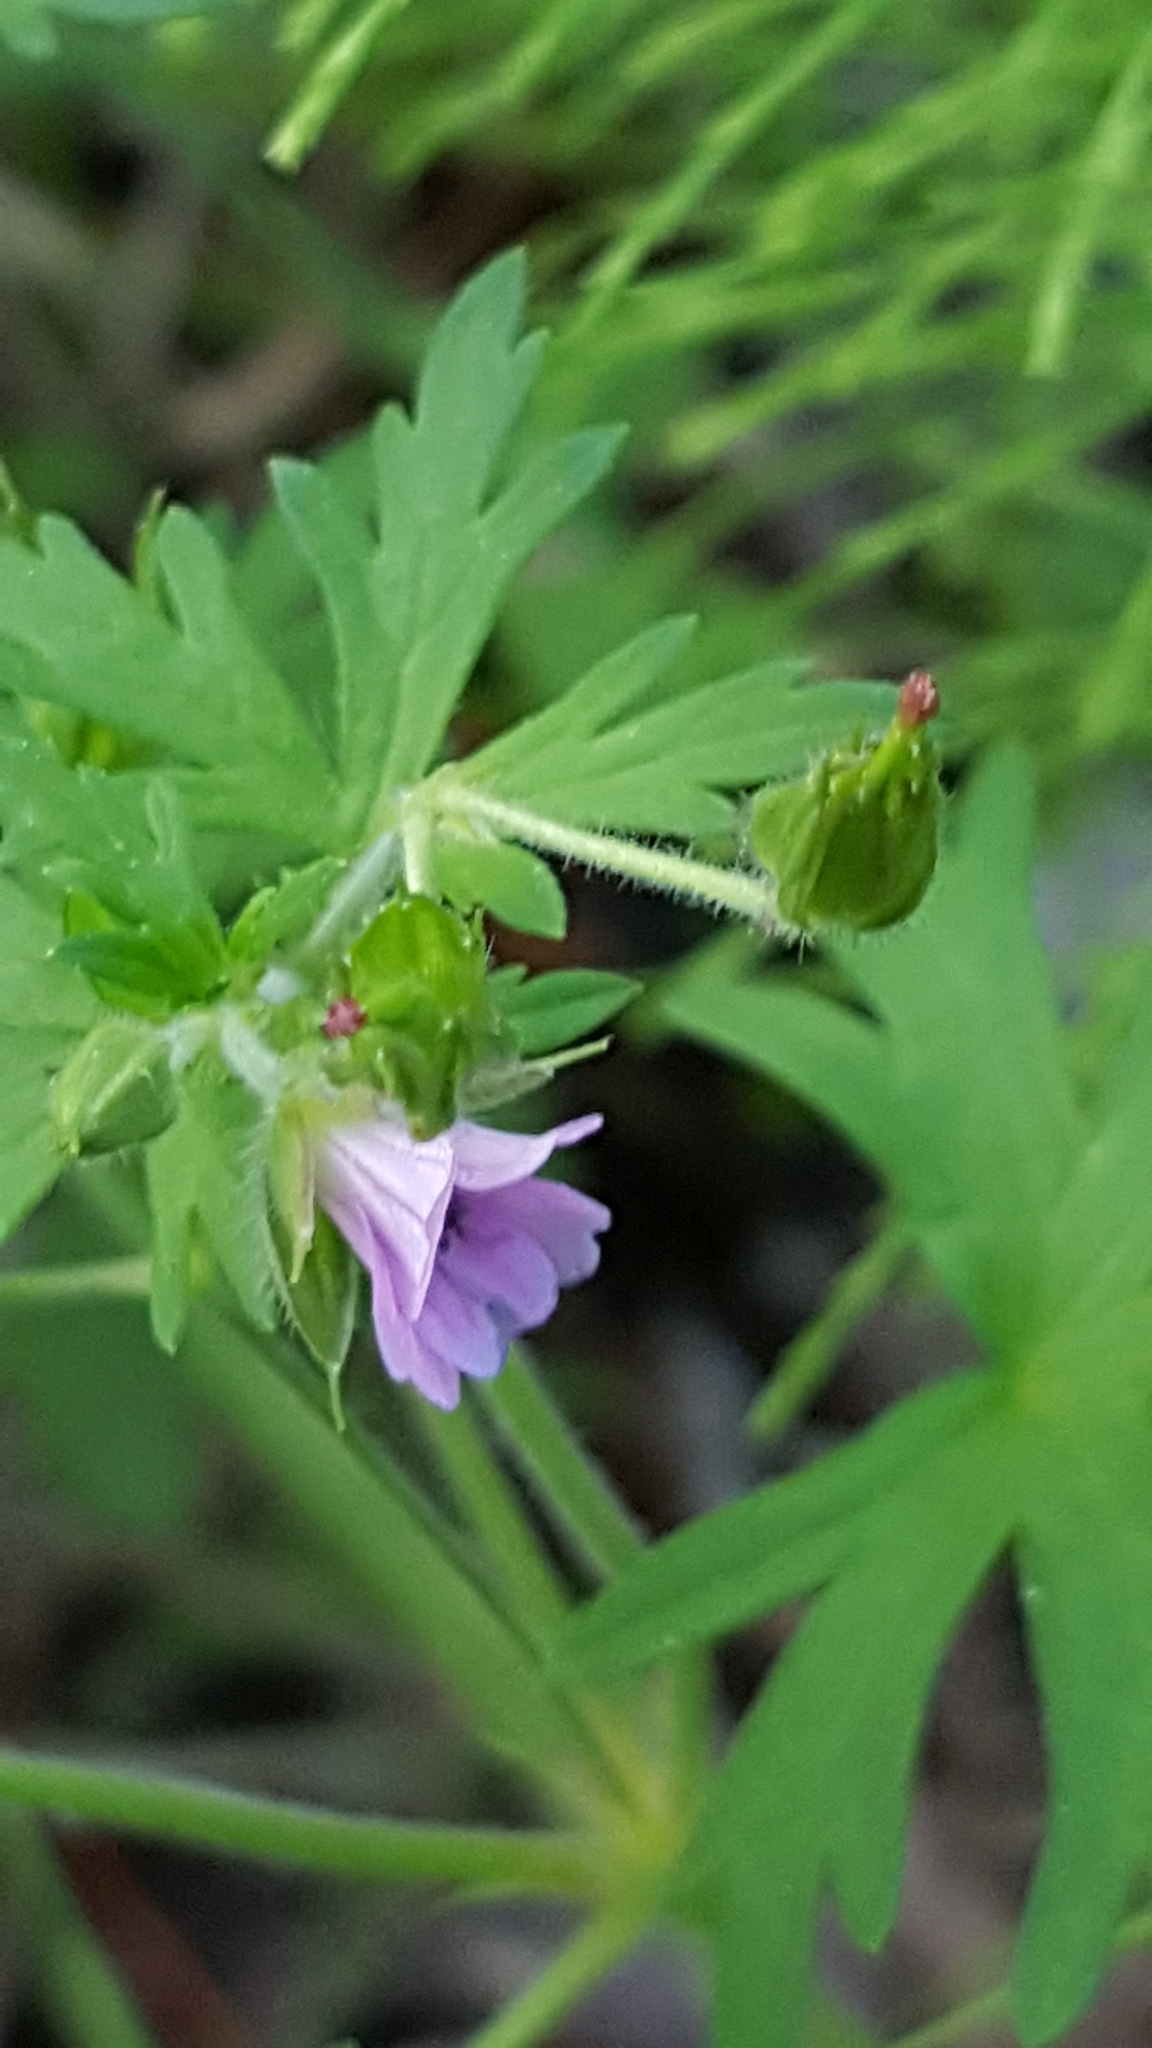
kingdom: Plantae
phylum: Tracheophyta
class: Magnoliopsida
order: Geraniales
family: Geraniaceae
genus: Geranium
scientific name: Geranium bicknellii
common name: Bicknell's cranesbill
